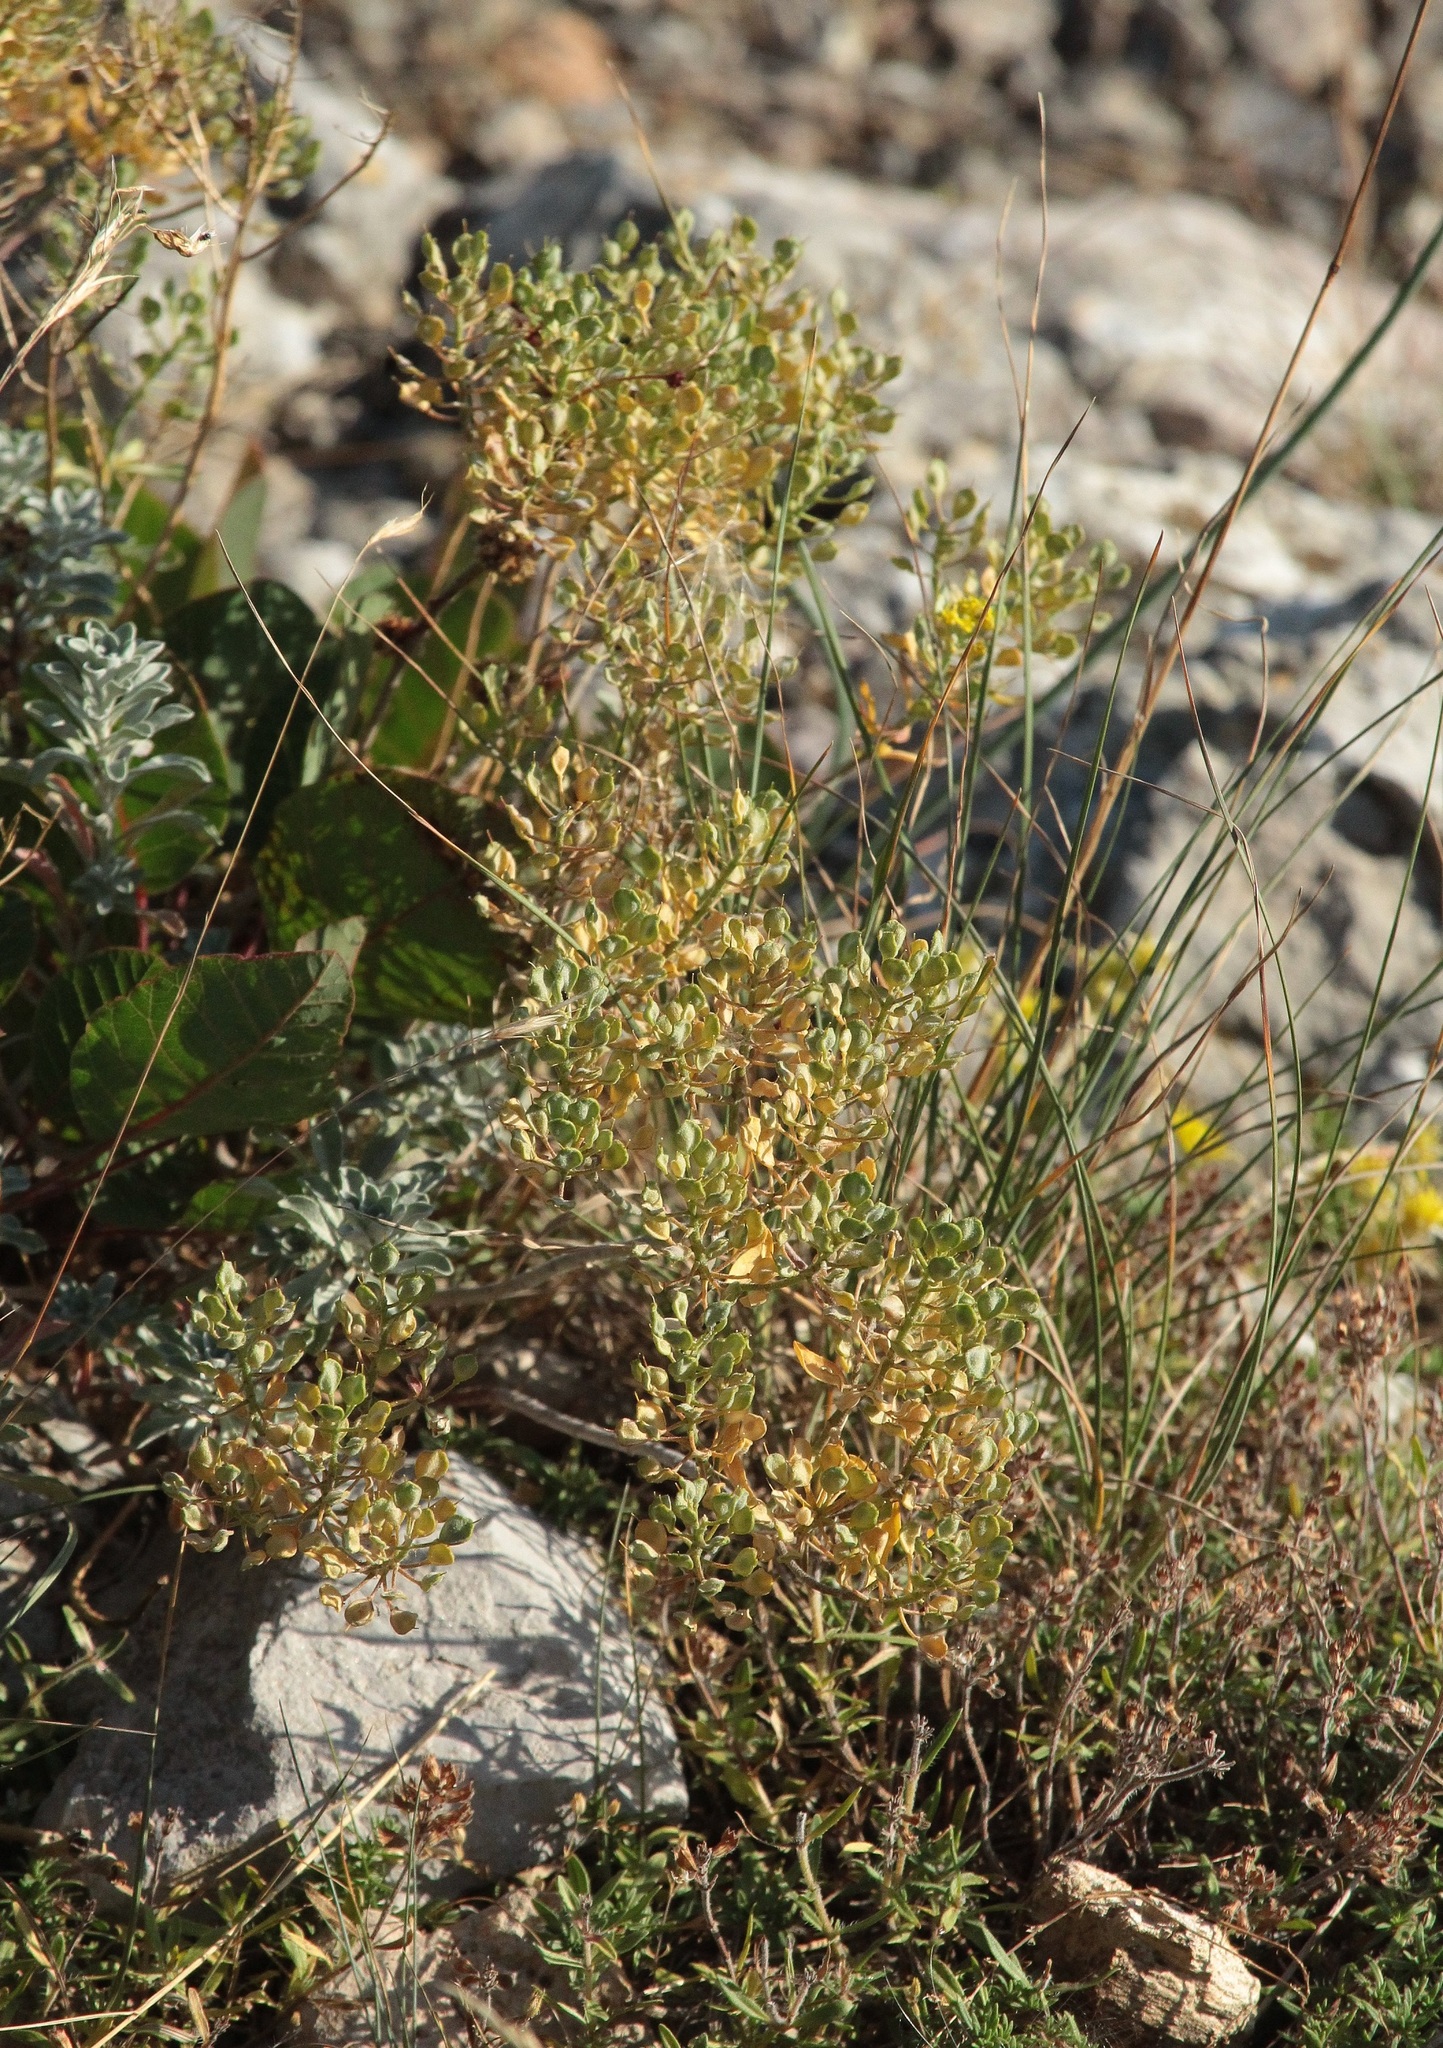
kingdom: Plantae
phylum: Tracheophyta
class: Magnoliopsida
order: Brassicales
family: Brassicaceae
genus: Odontarrhena
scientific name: Odontarrhena tortuosa
